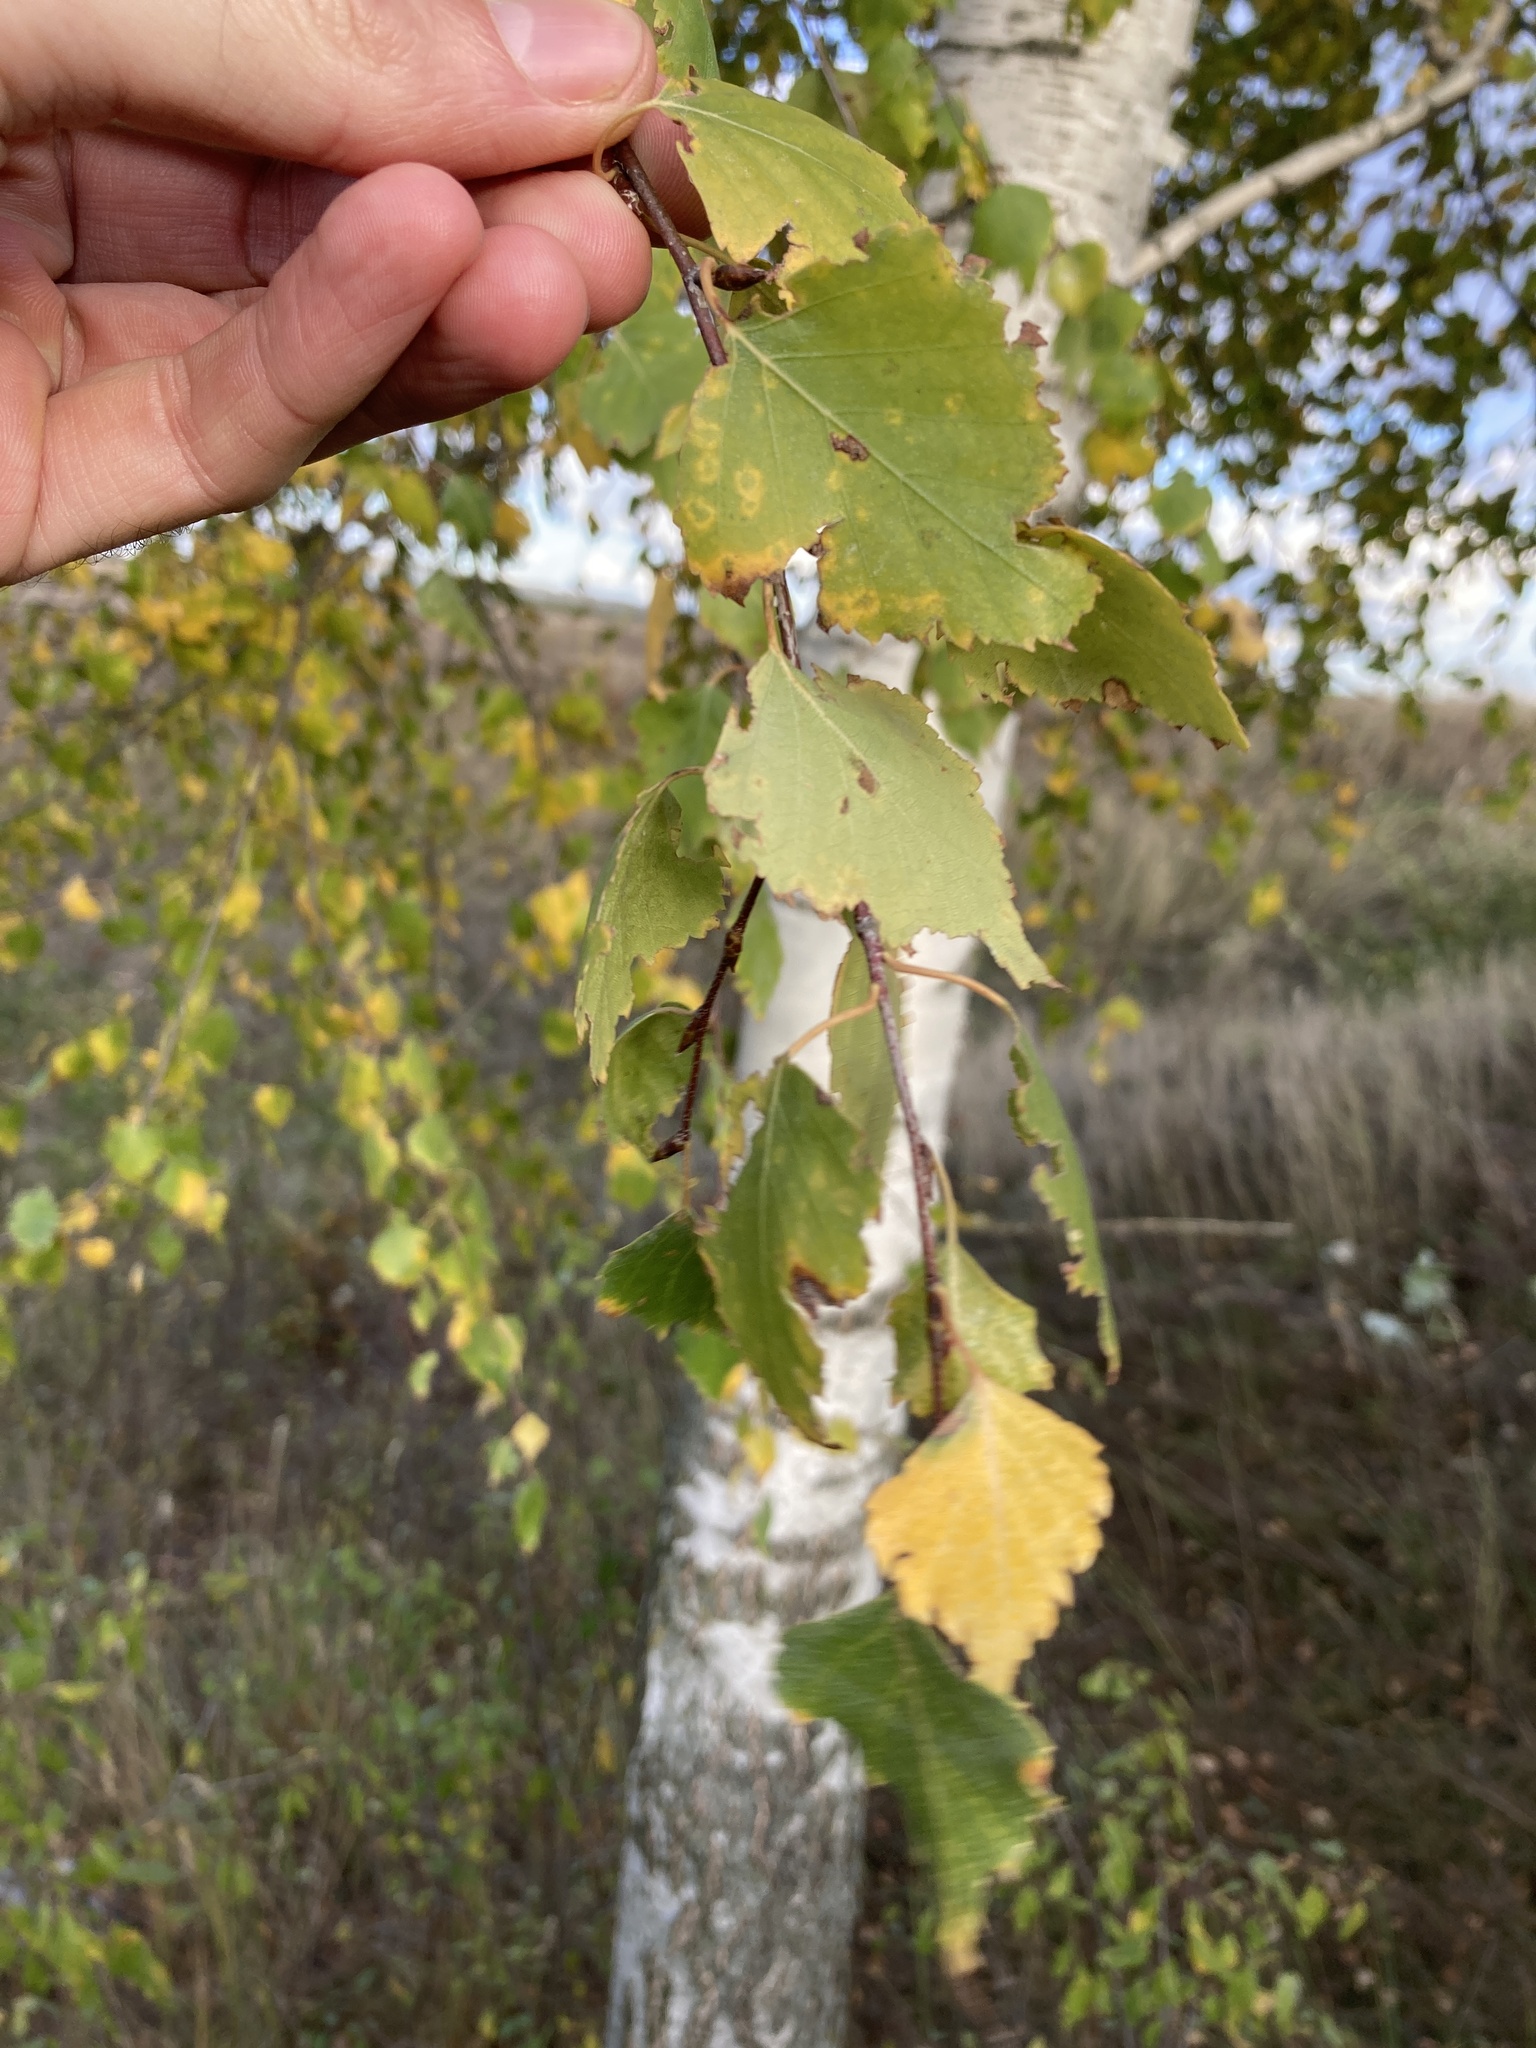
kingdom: Plantae
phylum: Tracheophyta
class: Magnoliopsida
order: Fagales
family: Betulaceae
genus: Betula
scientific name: Betula pendula
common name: Silver birch
